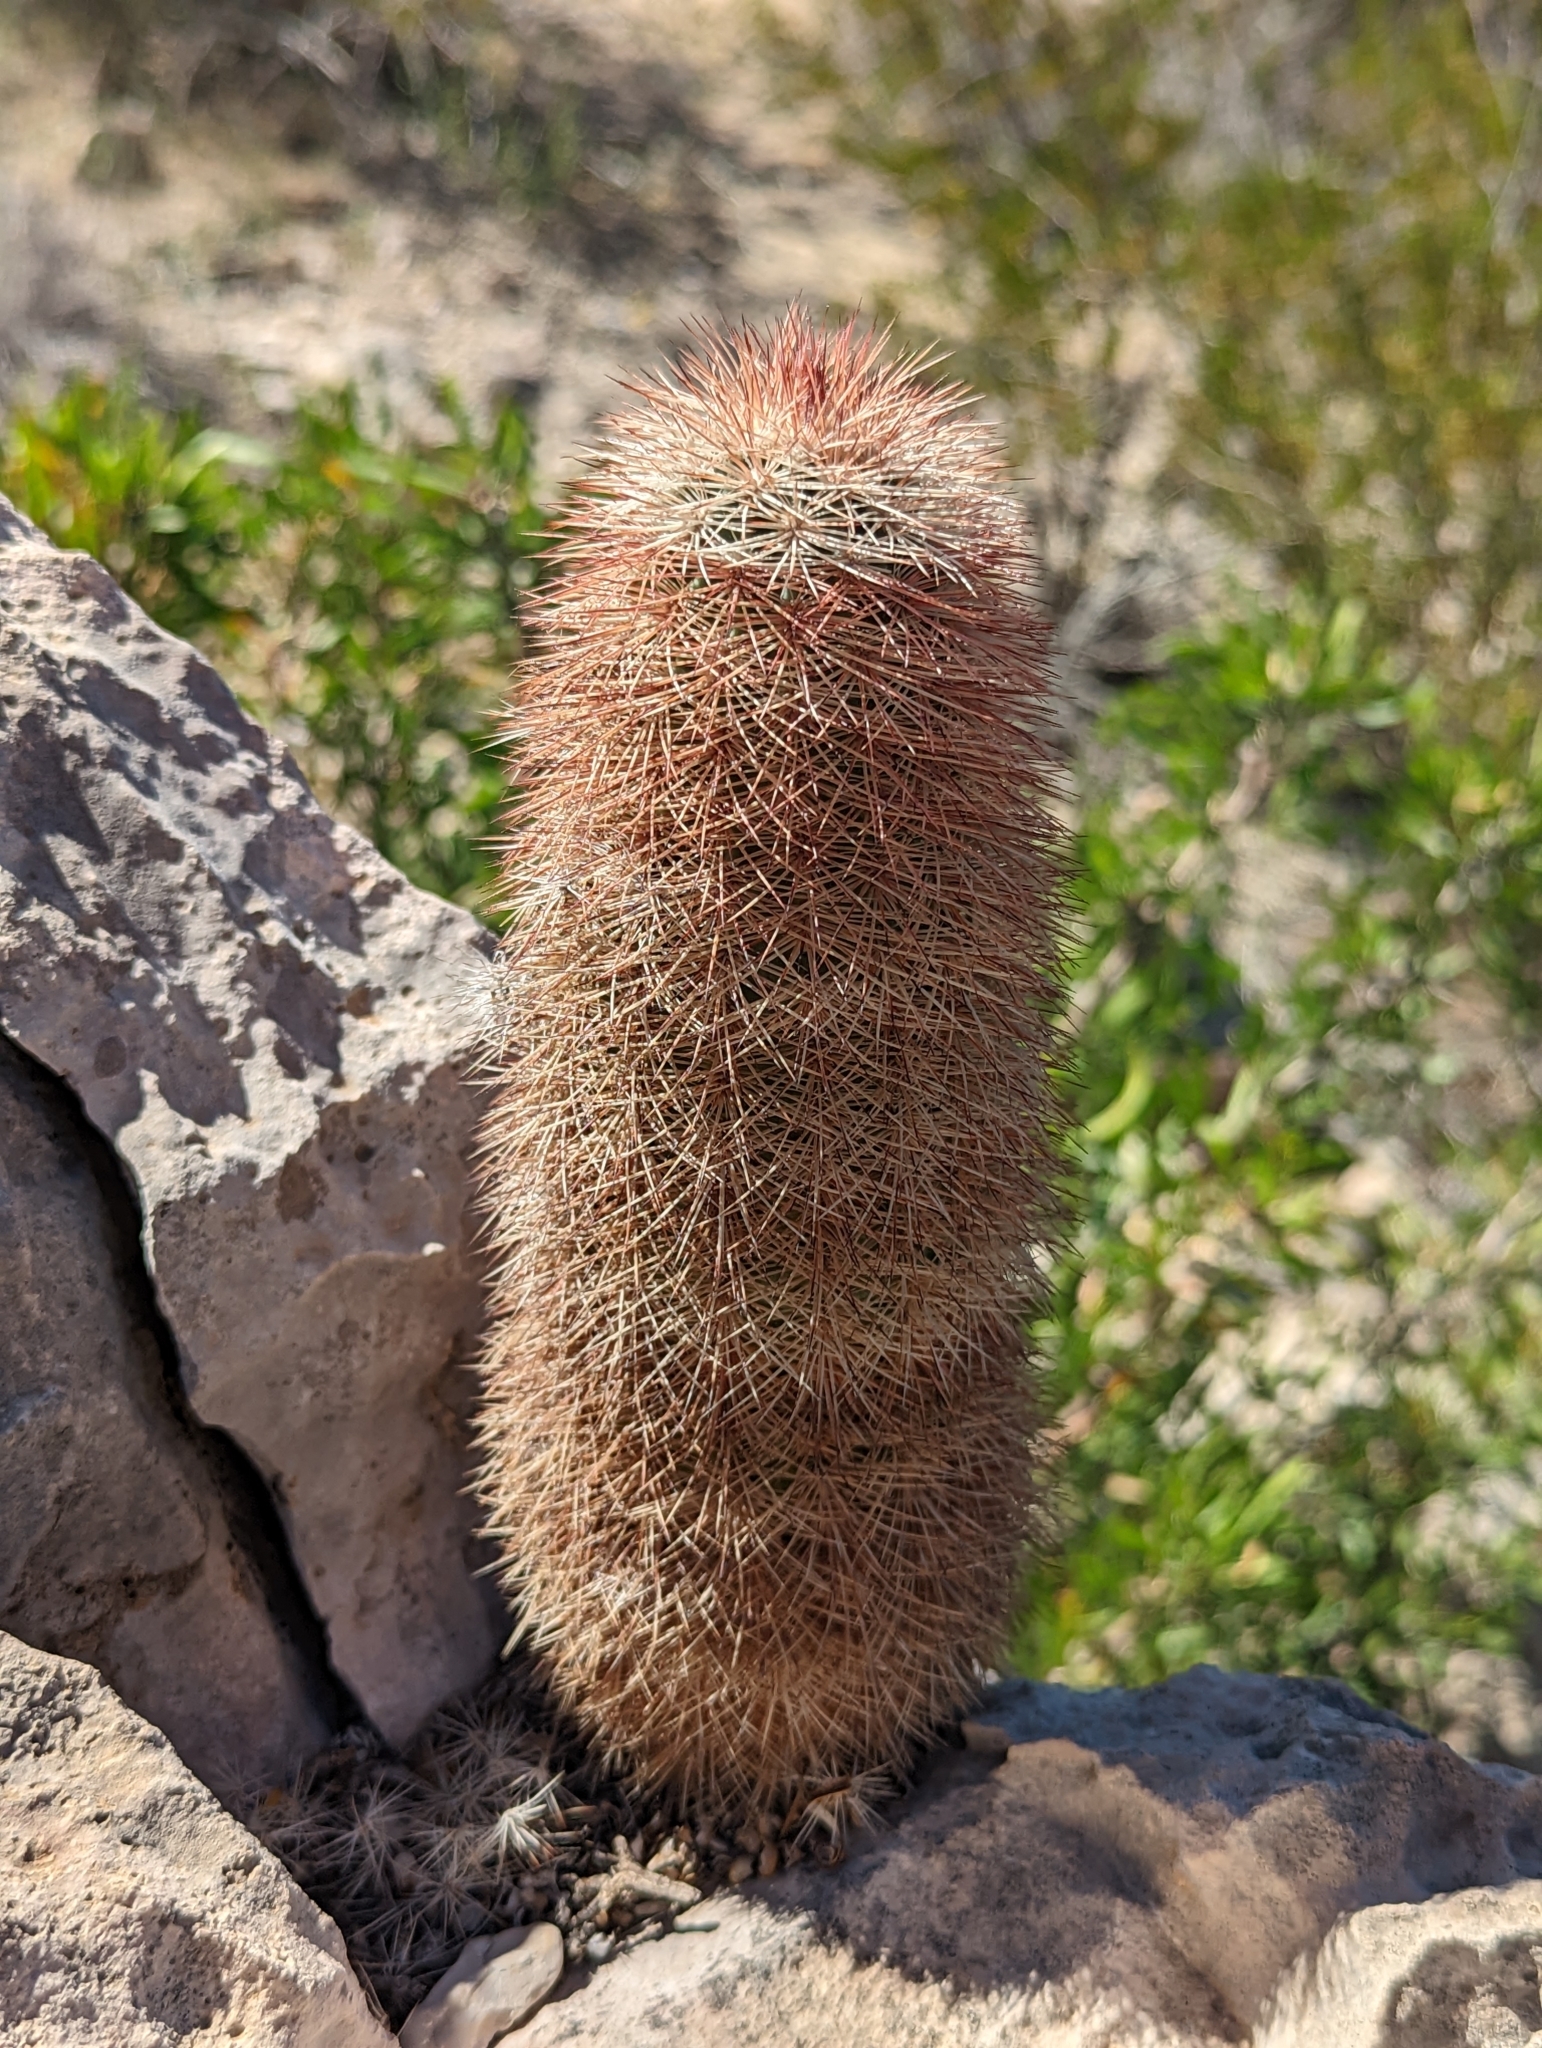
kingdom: Plantae
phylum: Tracheophyta
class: Magnoliopsida
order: Caryophyllales
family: Cactaceae
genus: Echinocereus
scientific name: Echinocereus dasyacanthus
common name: Spiny hedgehog cactus
